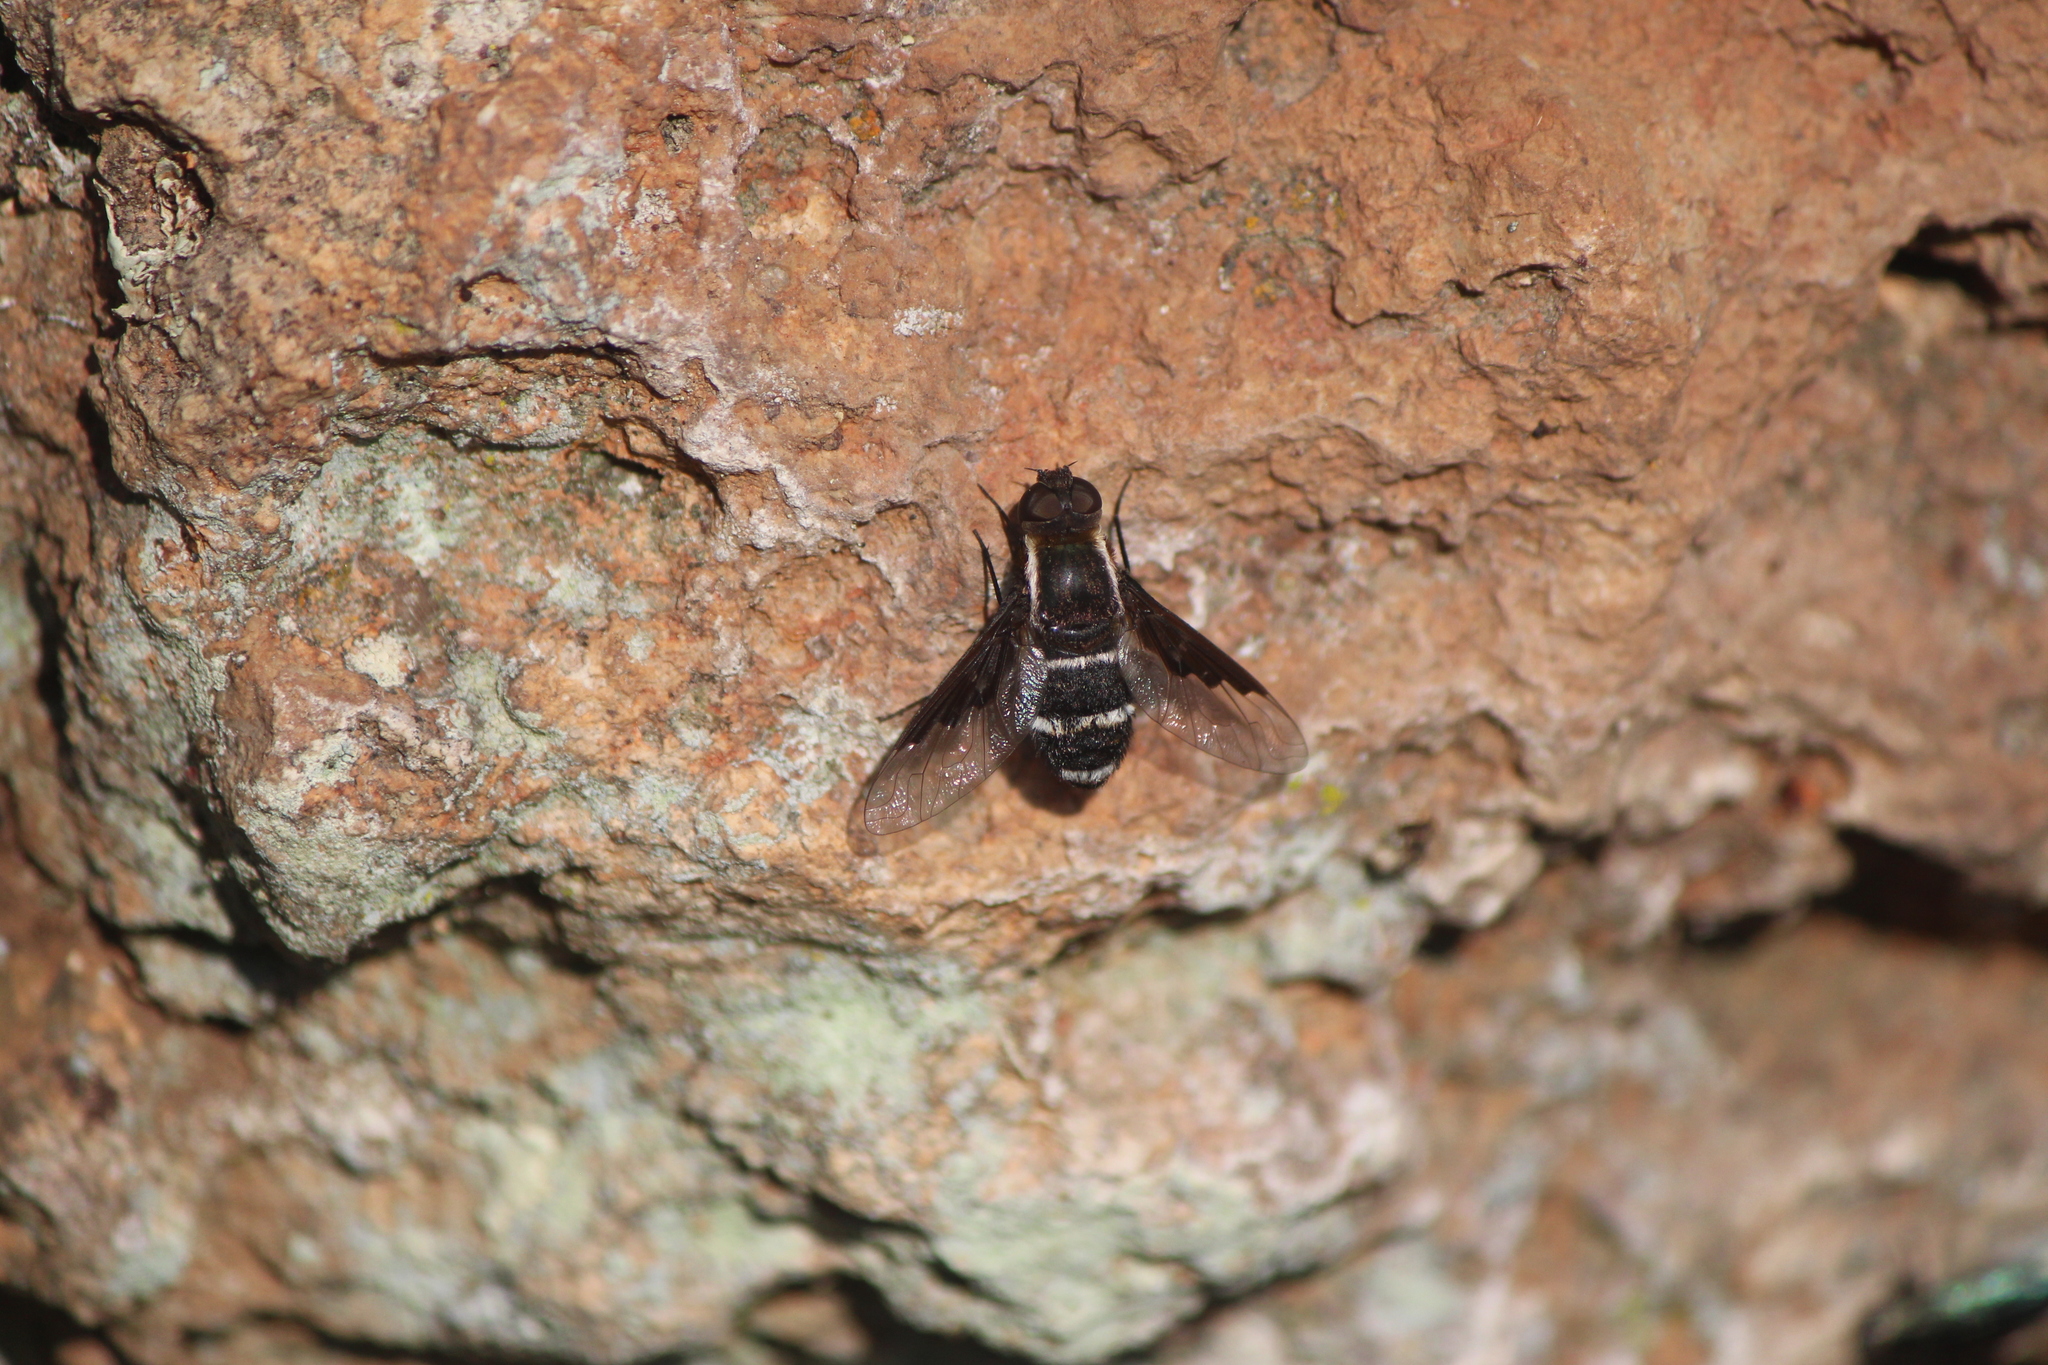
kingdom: Animalia
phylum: Arthropoda
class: Insecta
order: Diptera
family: Bombyliidae
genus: Hemipenthes
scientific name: Hemipenthes lepidotus
